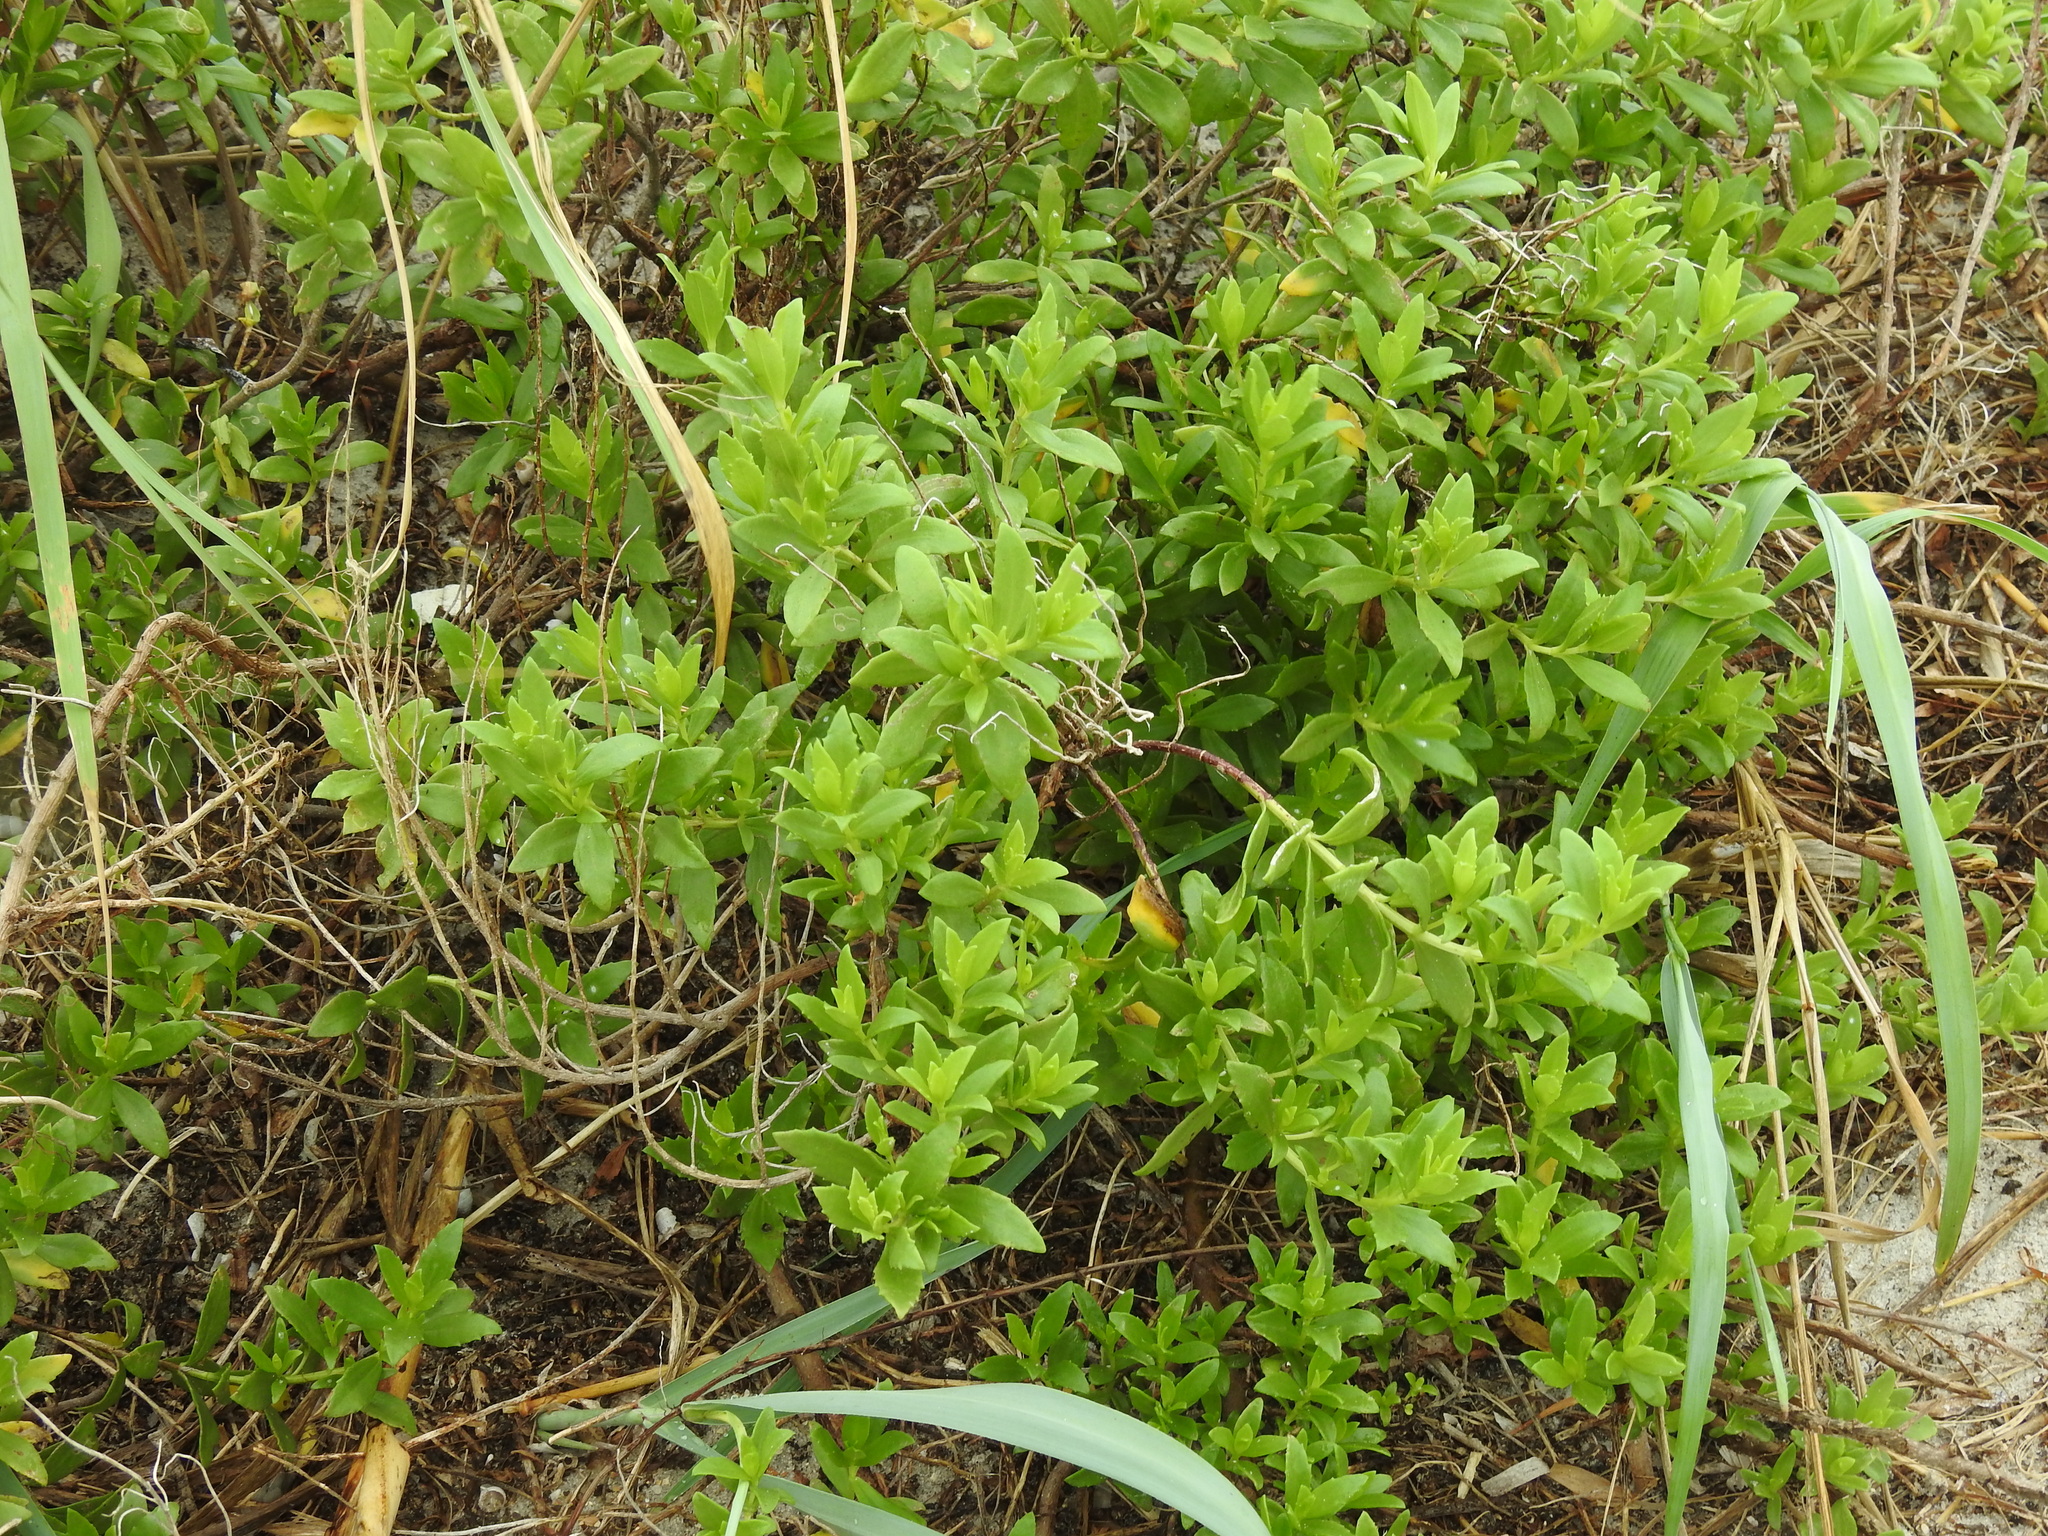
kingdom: Plantae
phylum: Tracheophyta
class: Magnoliopsida
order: Asterales
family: Asteraceae
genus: Iva
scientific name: Iva imbricata
